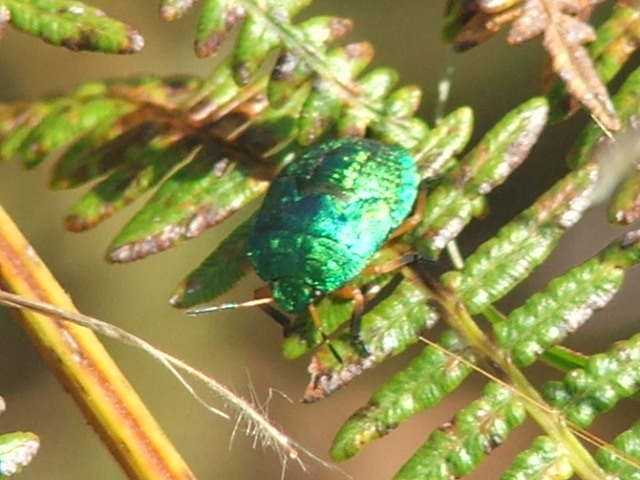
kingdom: Animalia
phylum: Arthropoda
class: Insecta
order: Hemiptera
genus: Erachtheus
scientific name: Erachtheus
